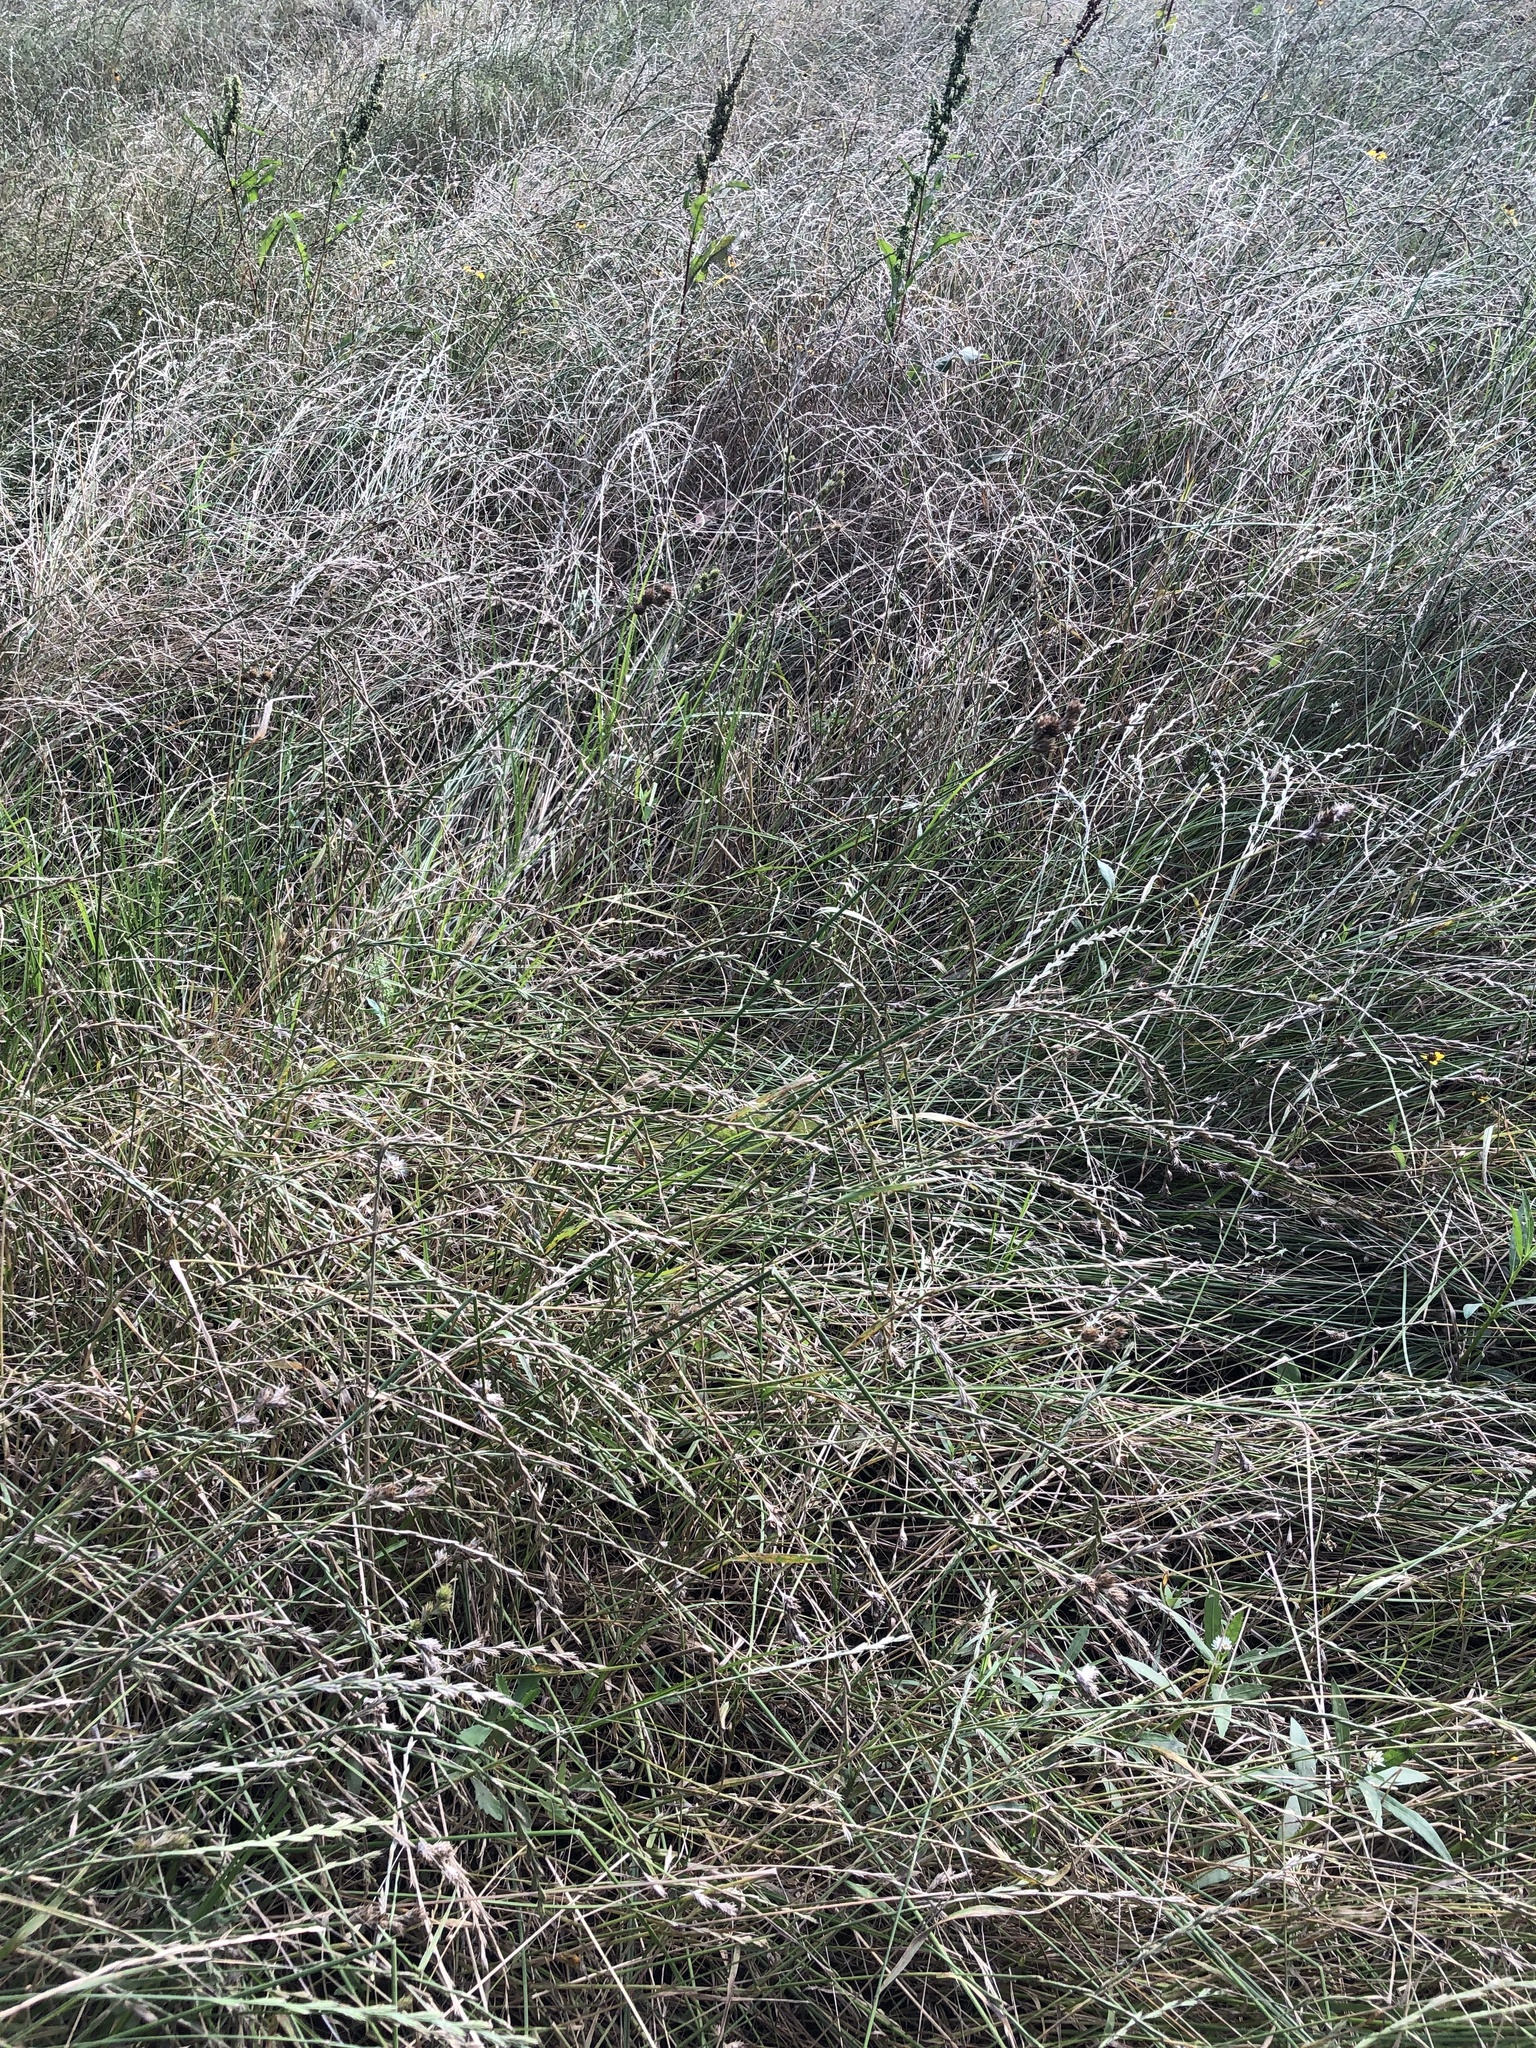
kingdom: Plantae
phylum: Tracheophyta
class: Liliopsida
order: Poales
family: Cyperaceae
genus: Carex
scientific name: Carex tetrastachya
